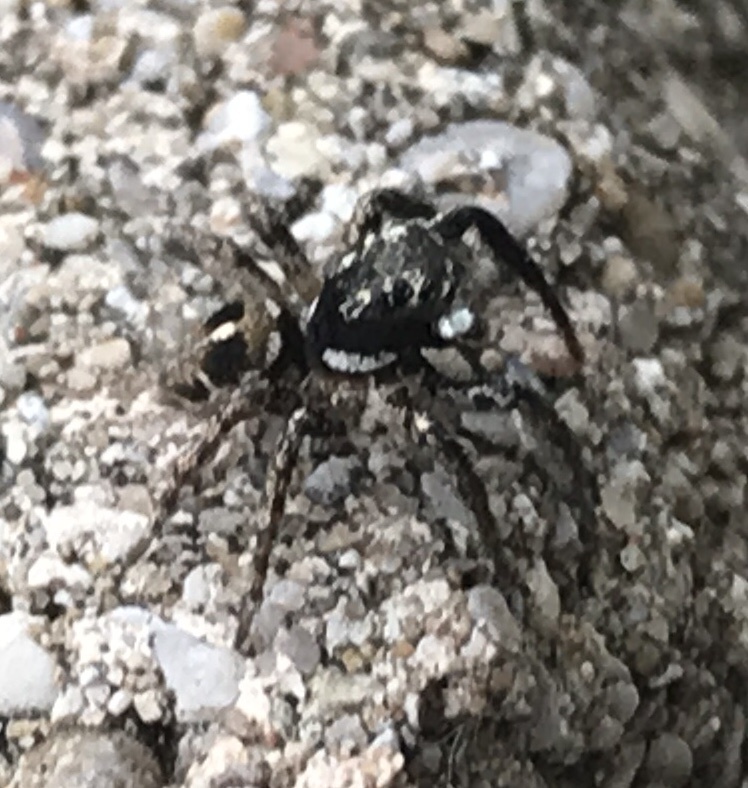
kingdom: Animalia
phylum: Arthropoda
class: Arachnida
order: Araneae
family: Salticidae
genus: Anasaitis
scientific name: Anasaitis canosa
